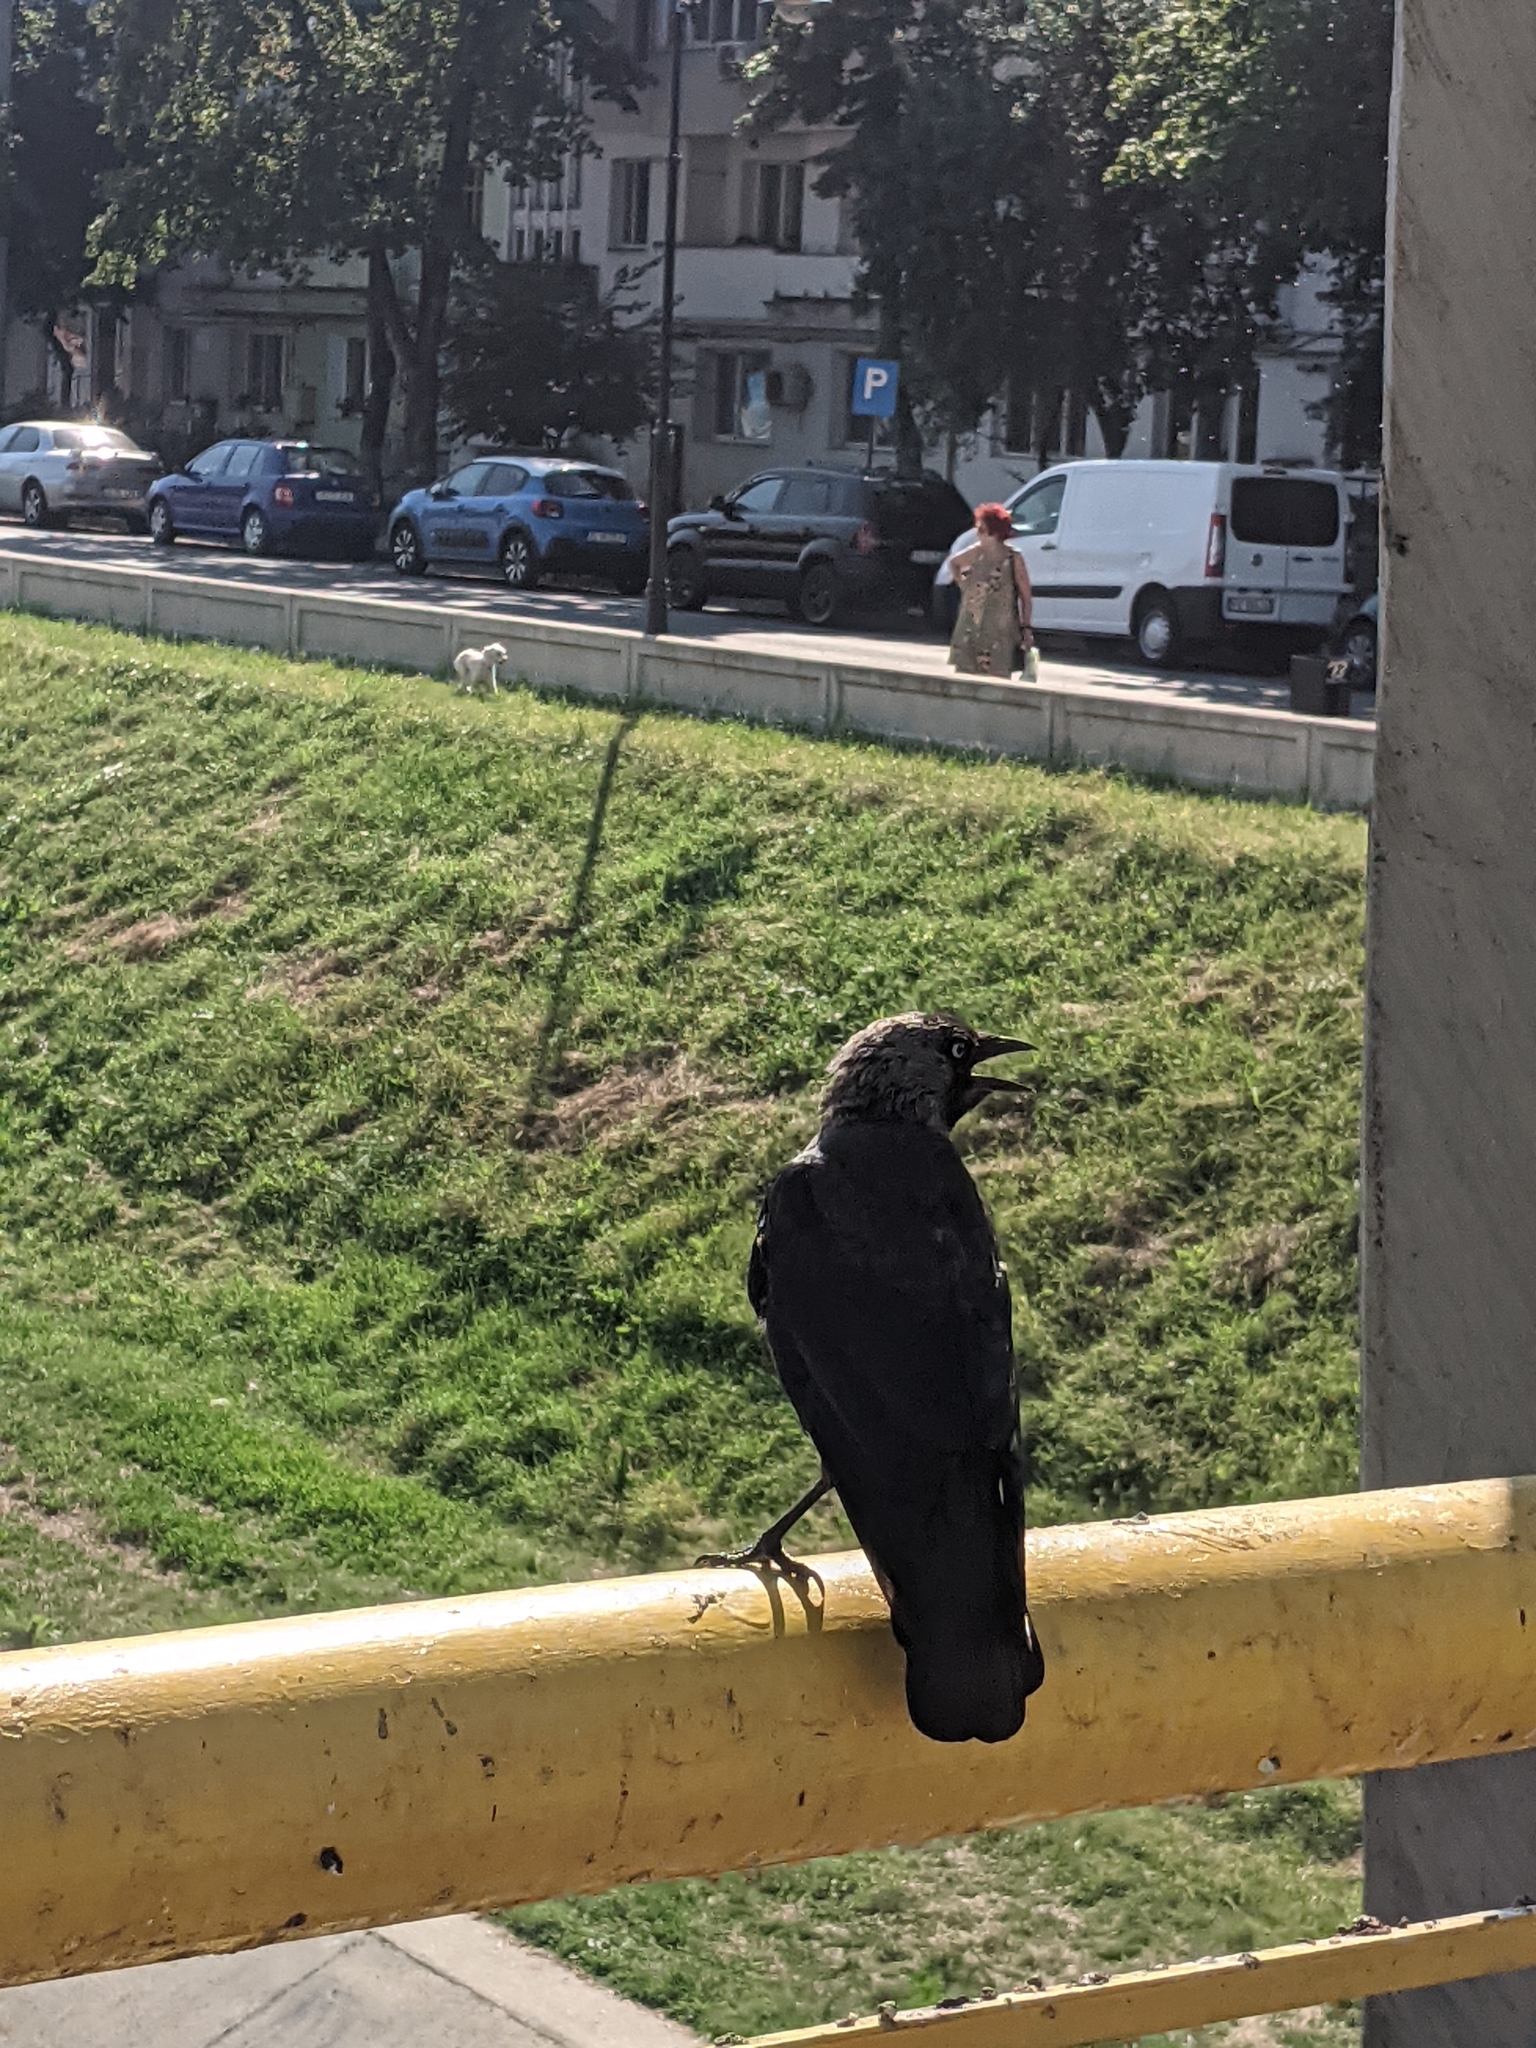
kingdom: Animalia
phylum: Chordata
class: Aves
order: Passeriformes
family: Corvidae
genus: Coloeus
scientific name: Coloeus monedula
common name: Western jackdaw
